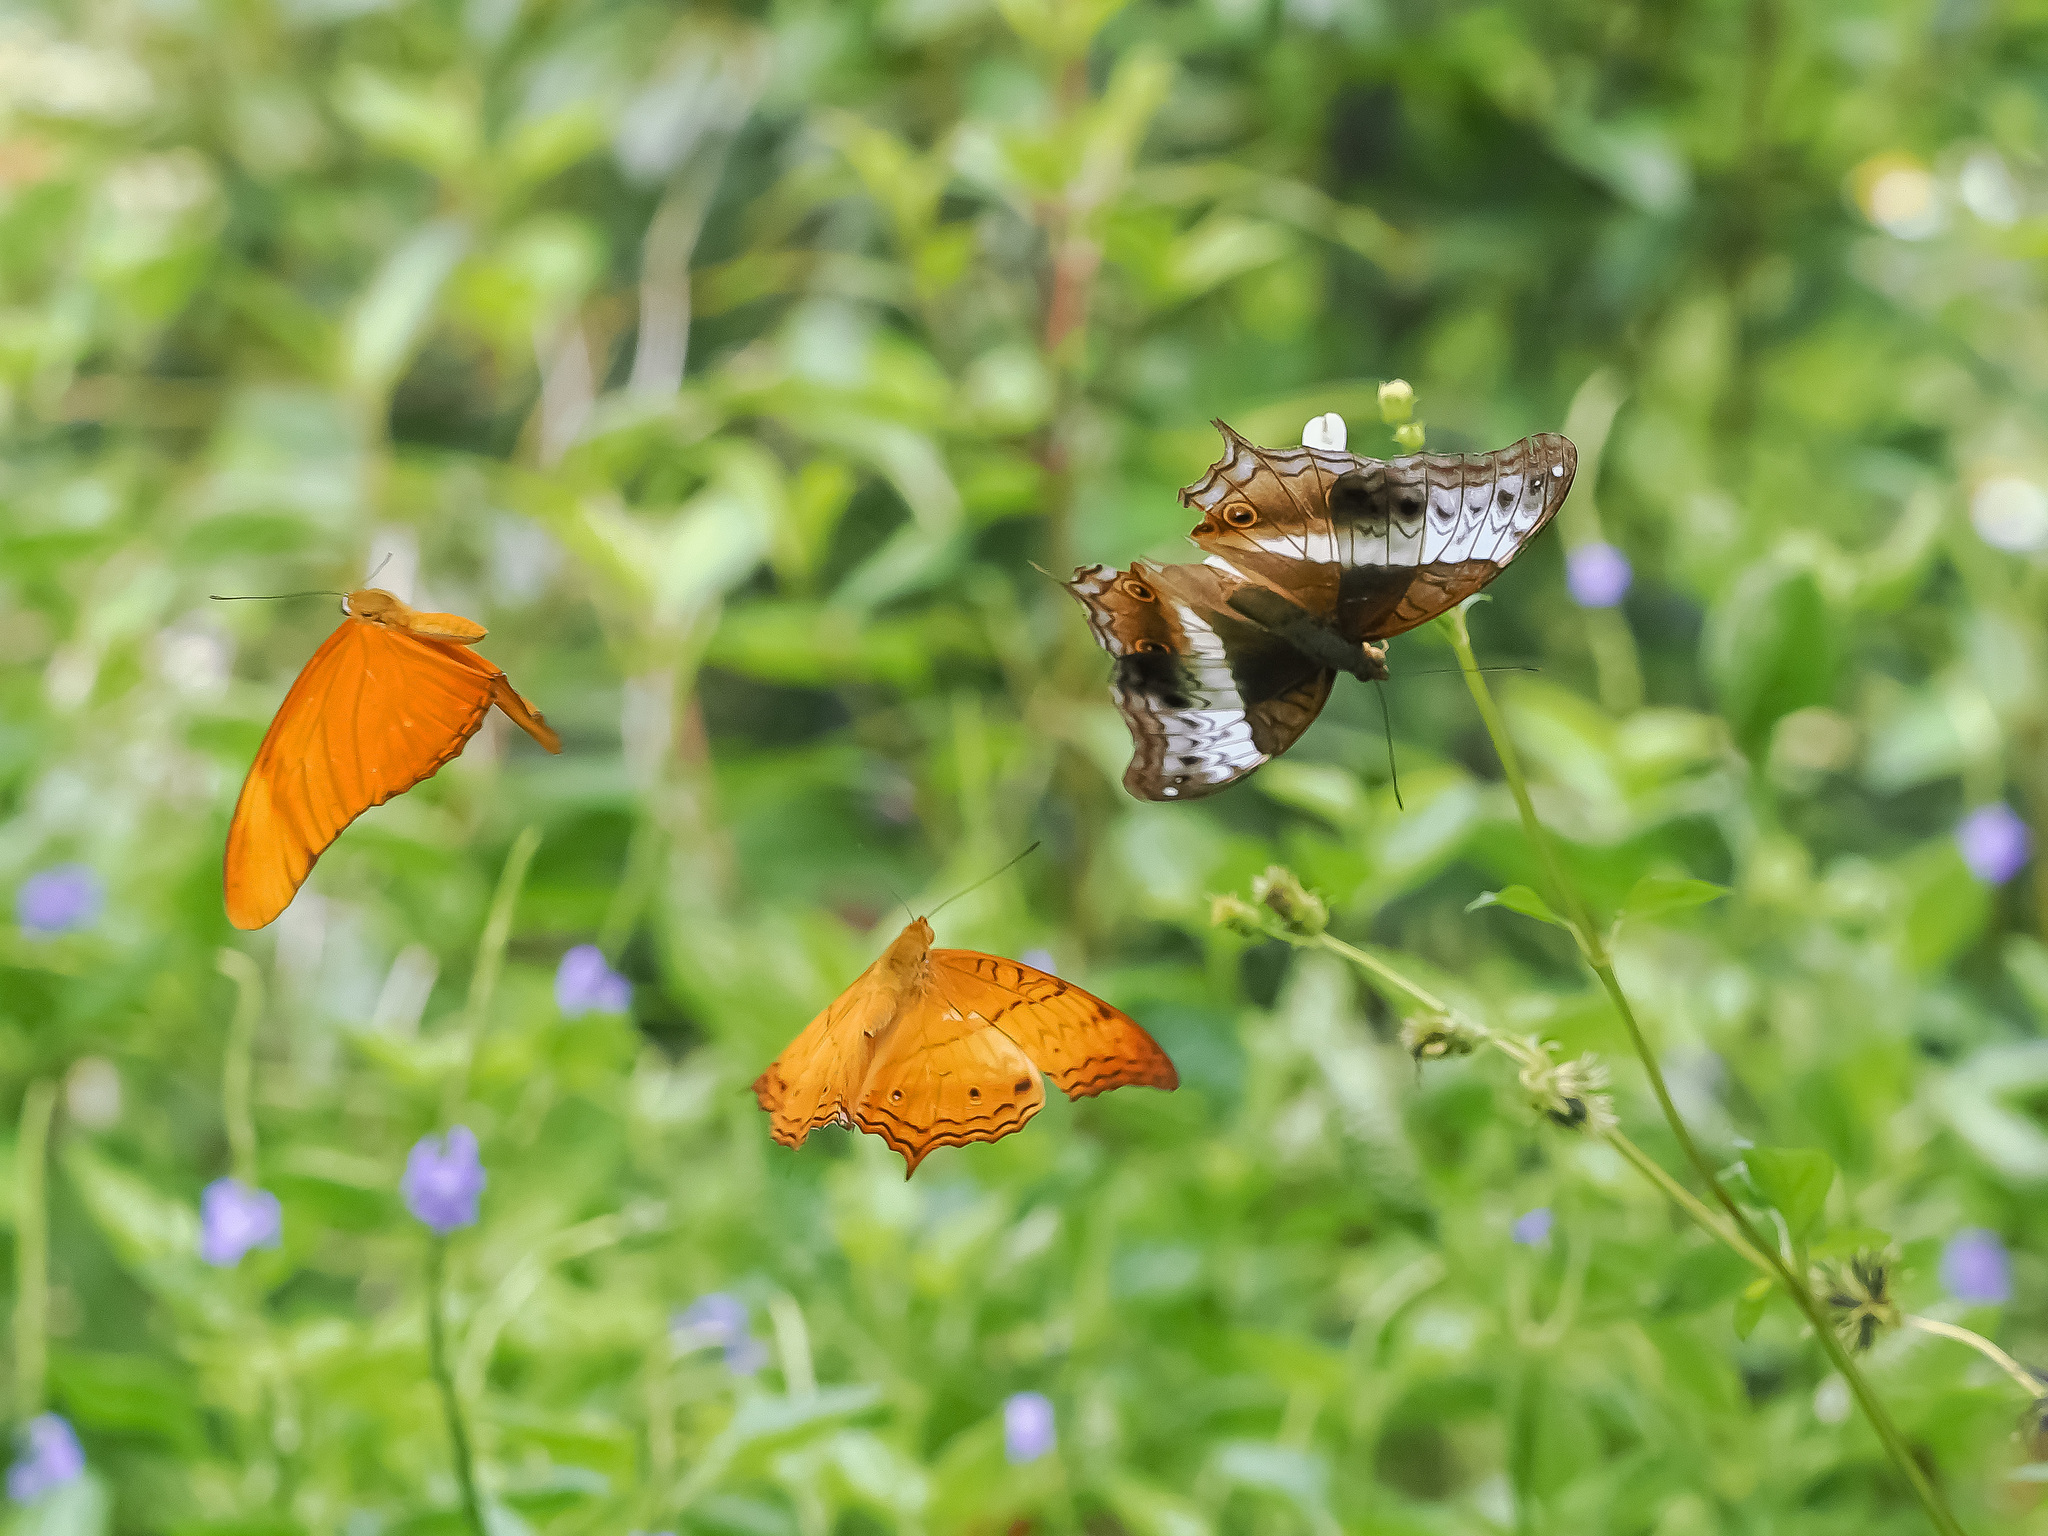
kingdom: Animalia
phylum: Arthropoda
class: Insecta
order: Lepidoptera
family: Nymphalidae
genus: Dryas
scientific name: Dryas iulia
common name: Flambeau
